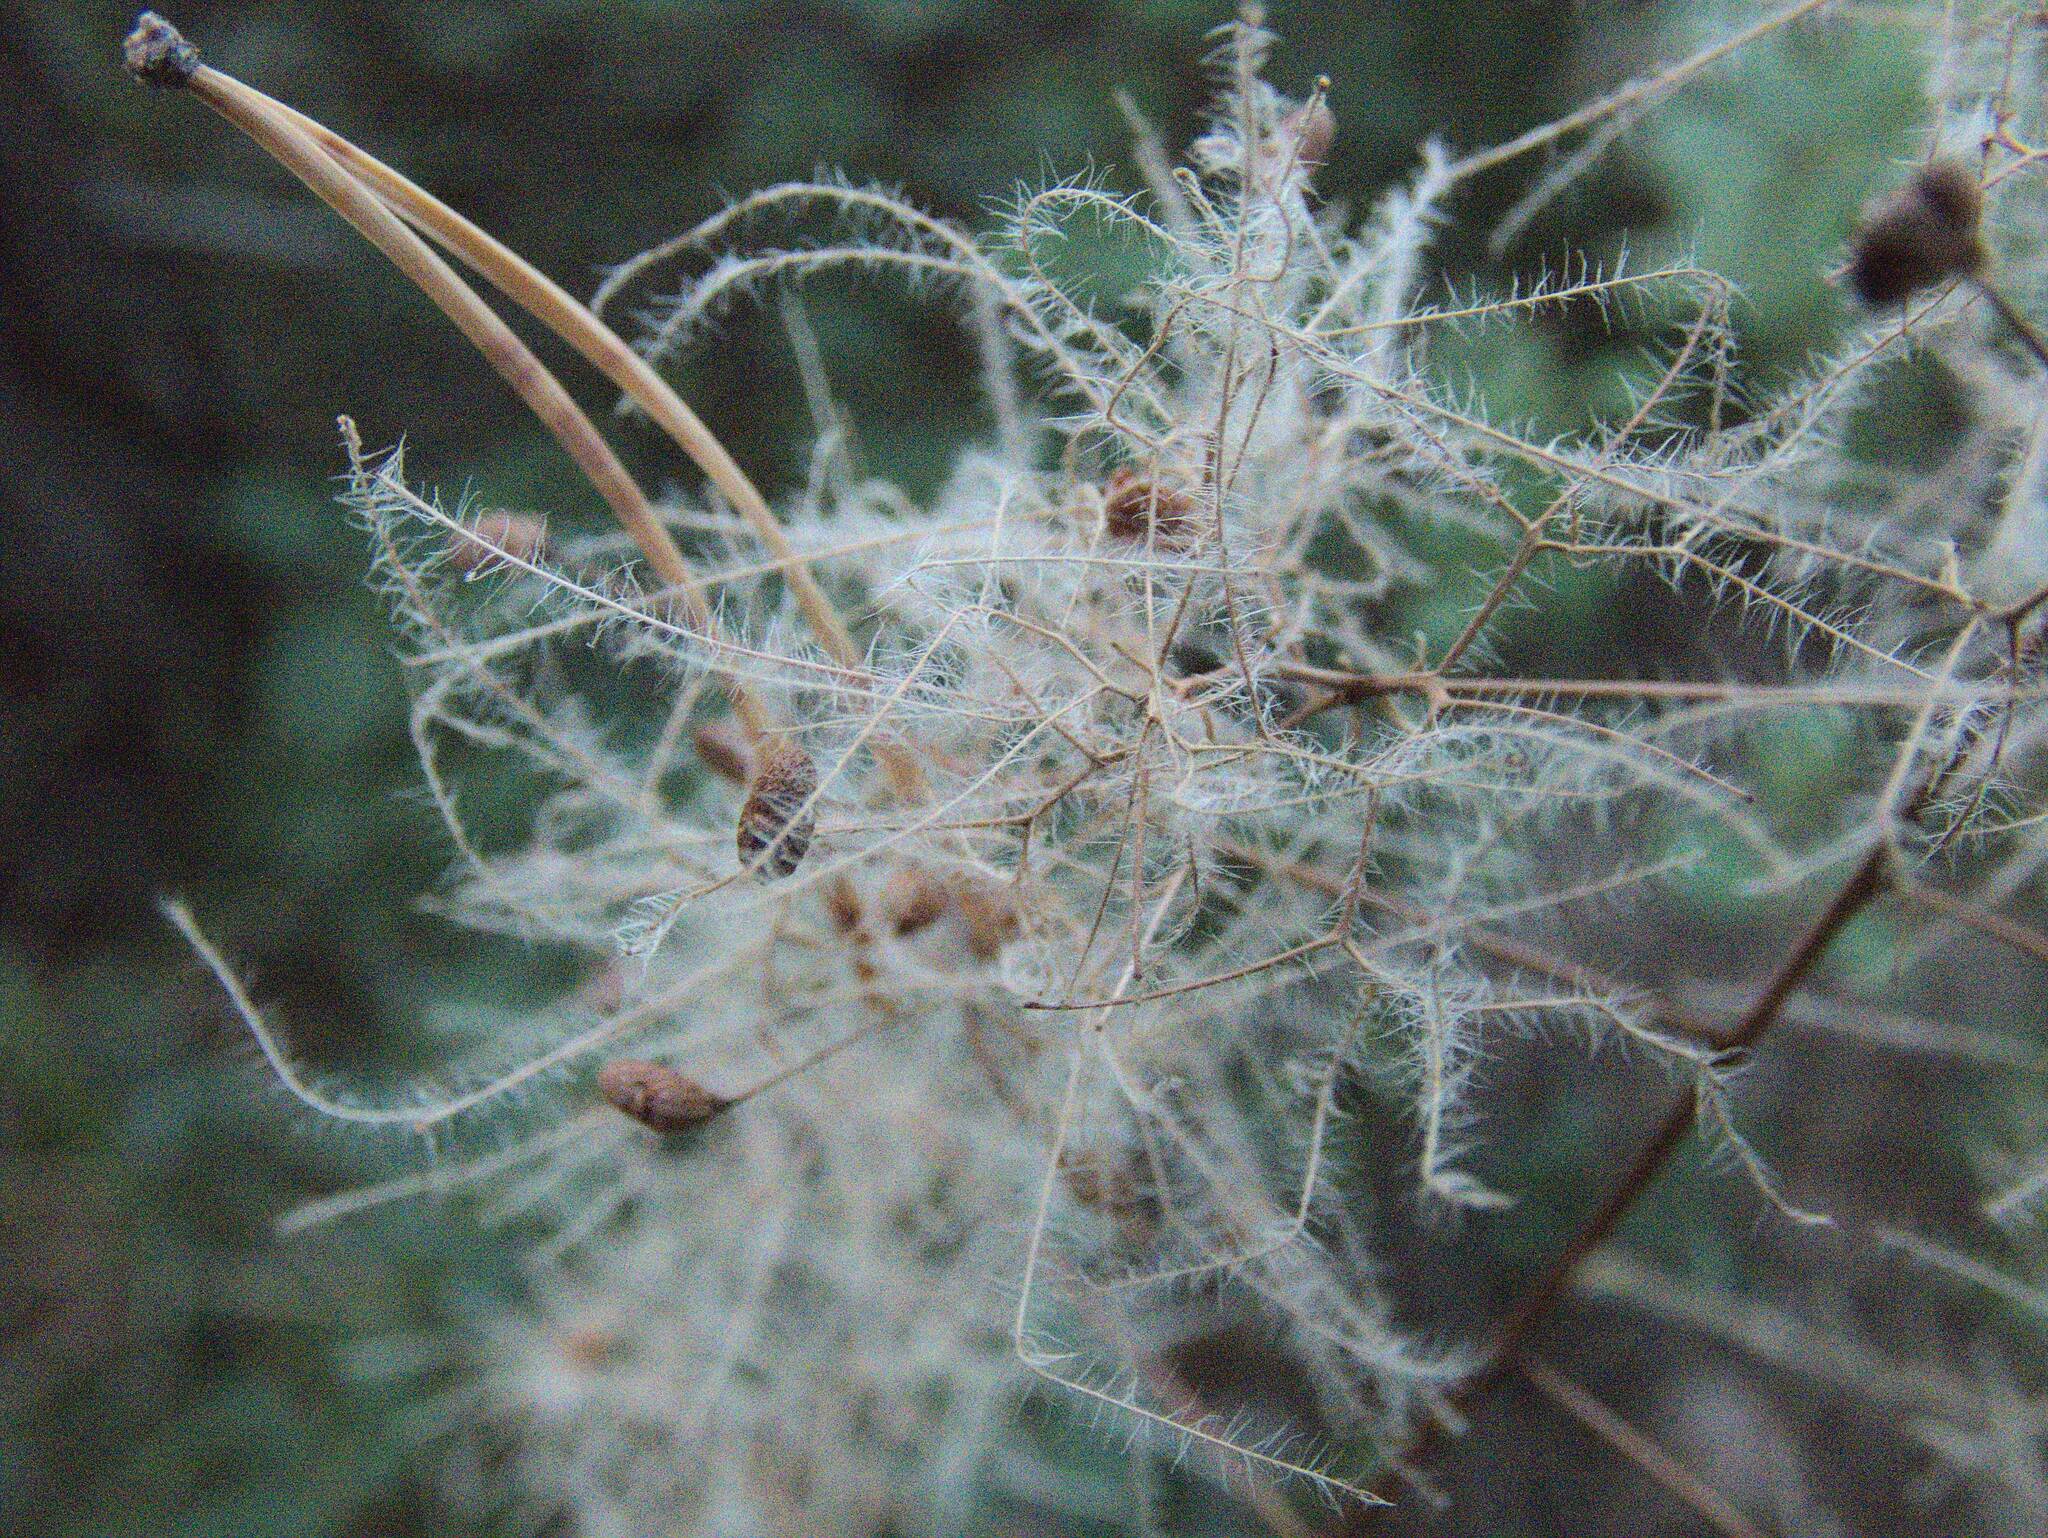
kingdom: Plantae
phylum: Tracheophyta
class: Magnoliopsida
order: Sapindales
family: Anacardiaceae
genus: Cotinus
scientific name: Cotinus coggygria
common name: Smoke-tree
